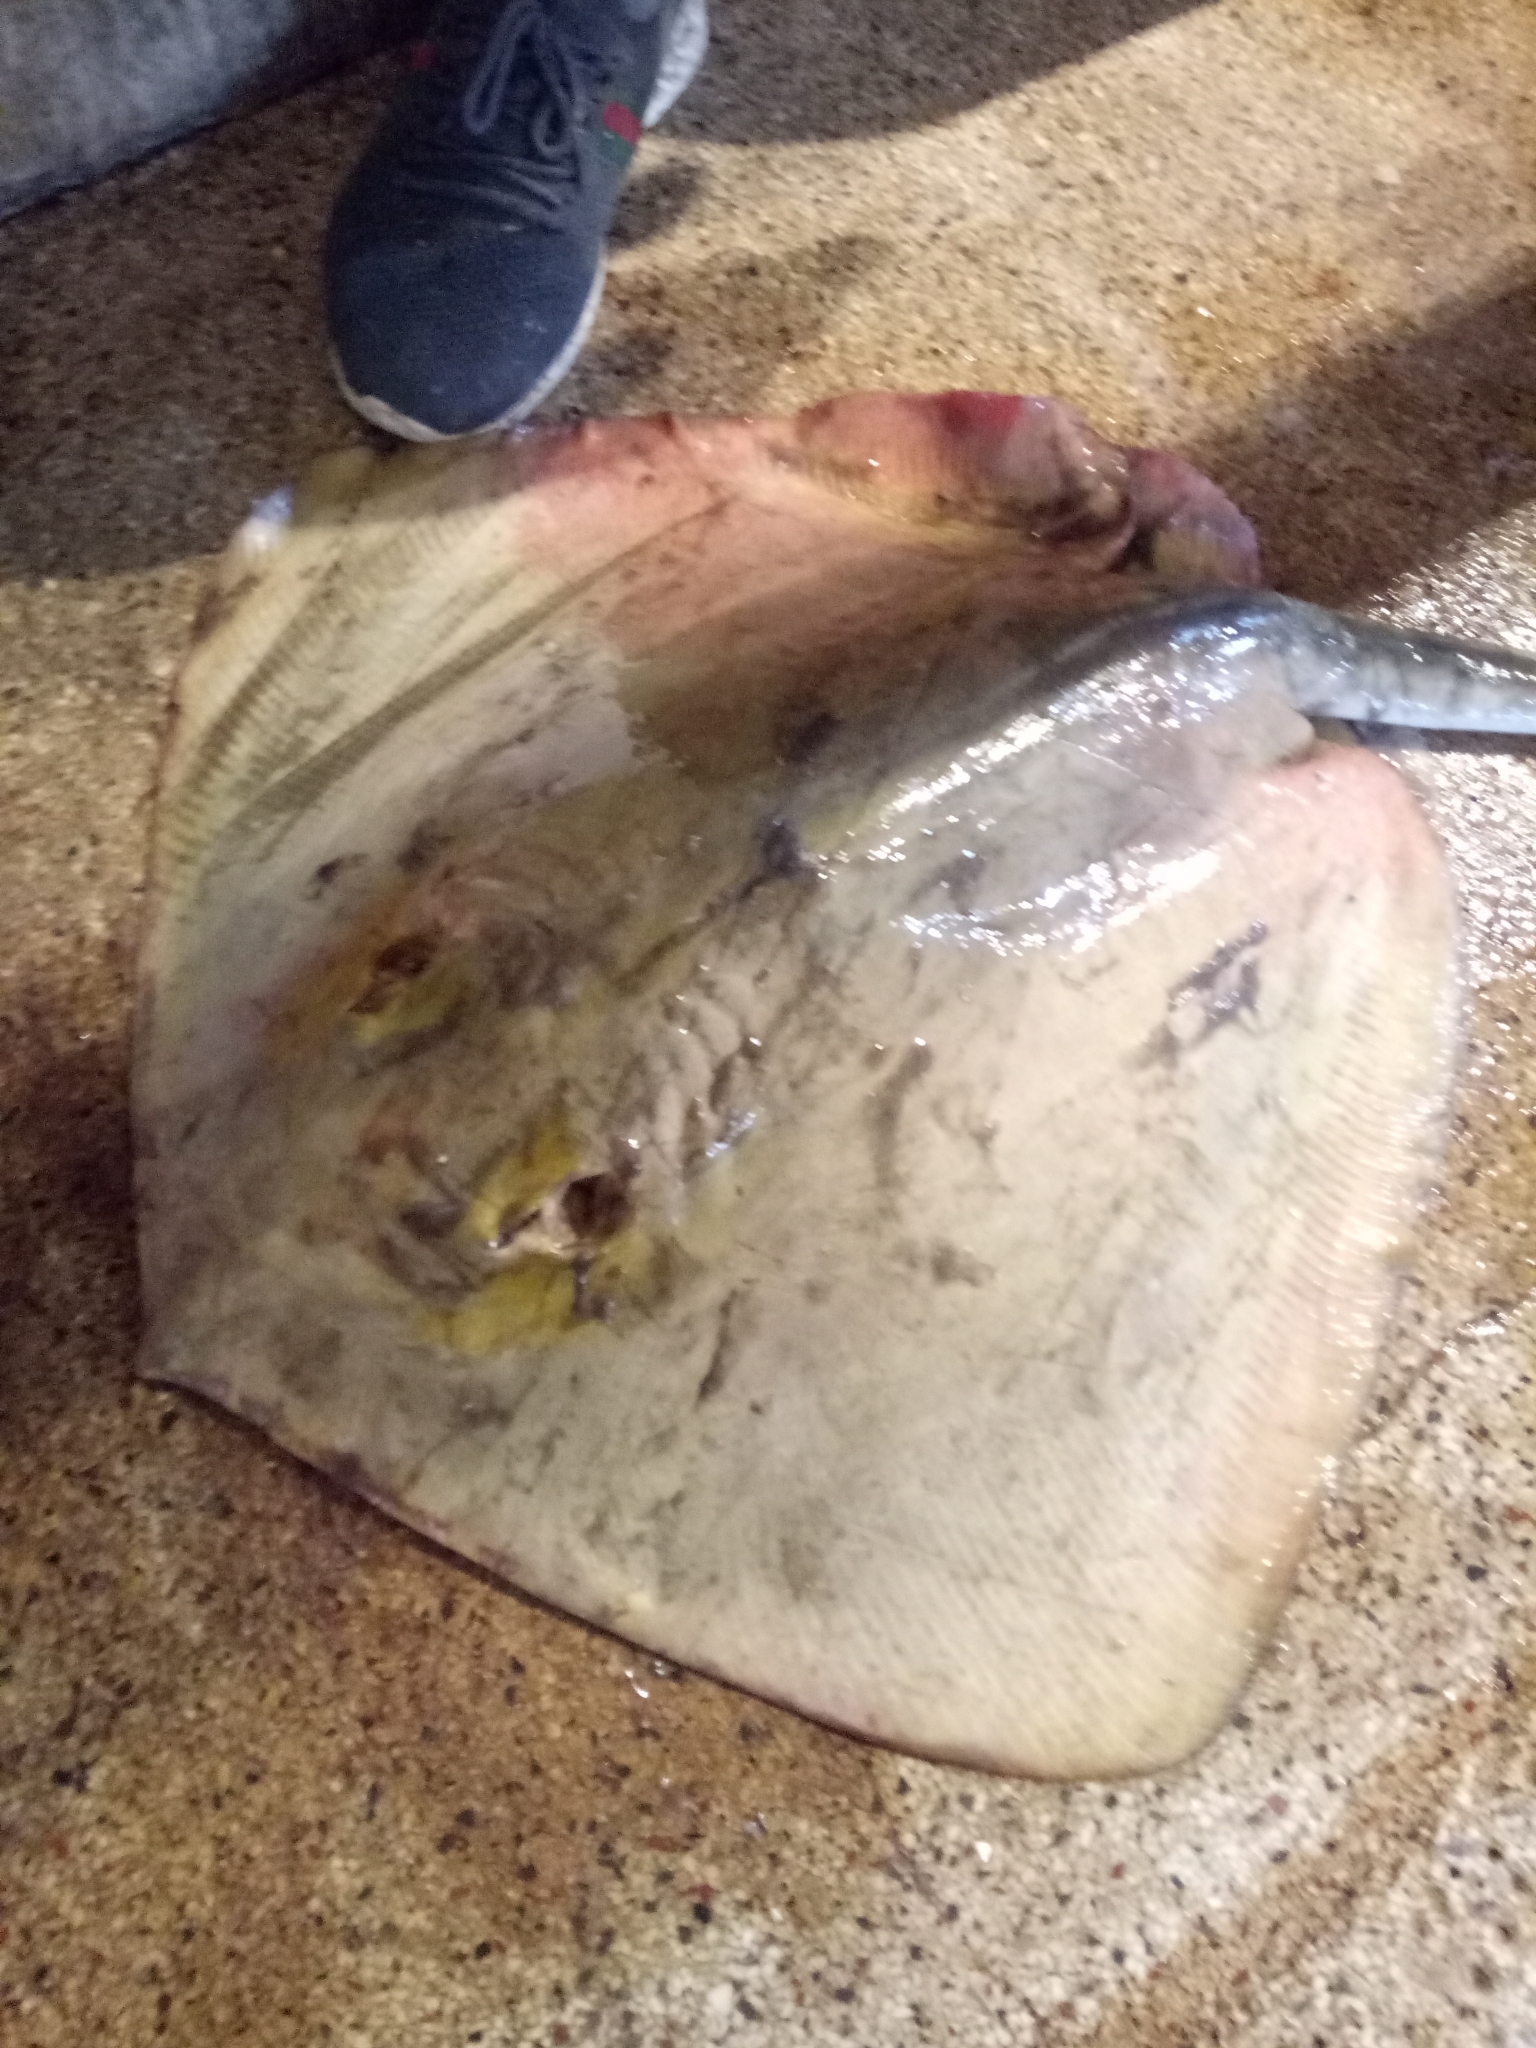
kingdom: Animalia
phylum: Chordata
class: Elasmobranchii
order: Myliobatiformes
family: Dasyatidae
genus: Dasyatis
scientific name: Dasyatis pastinaca
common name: Common stingray
